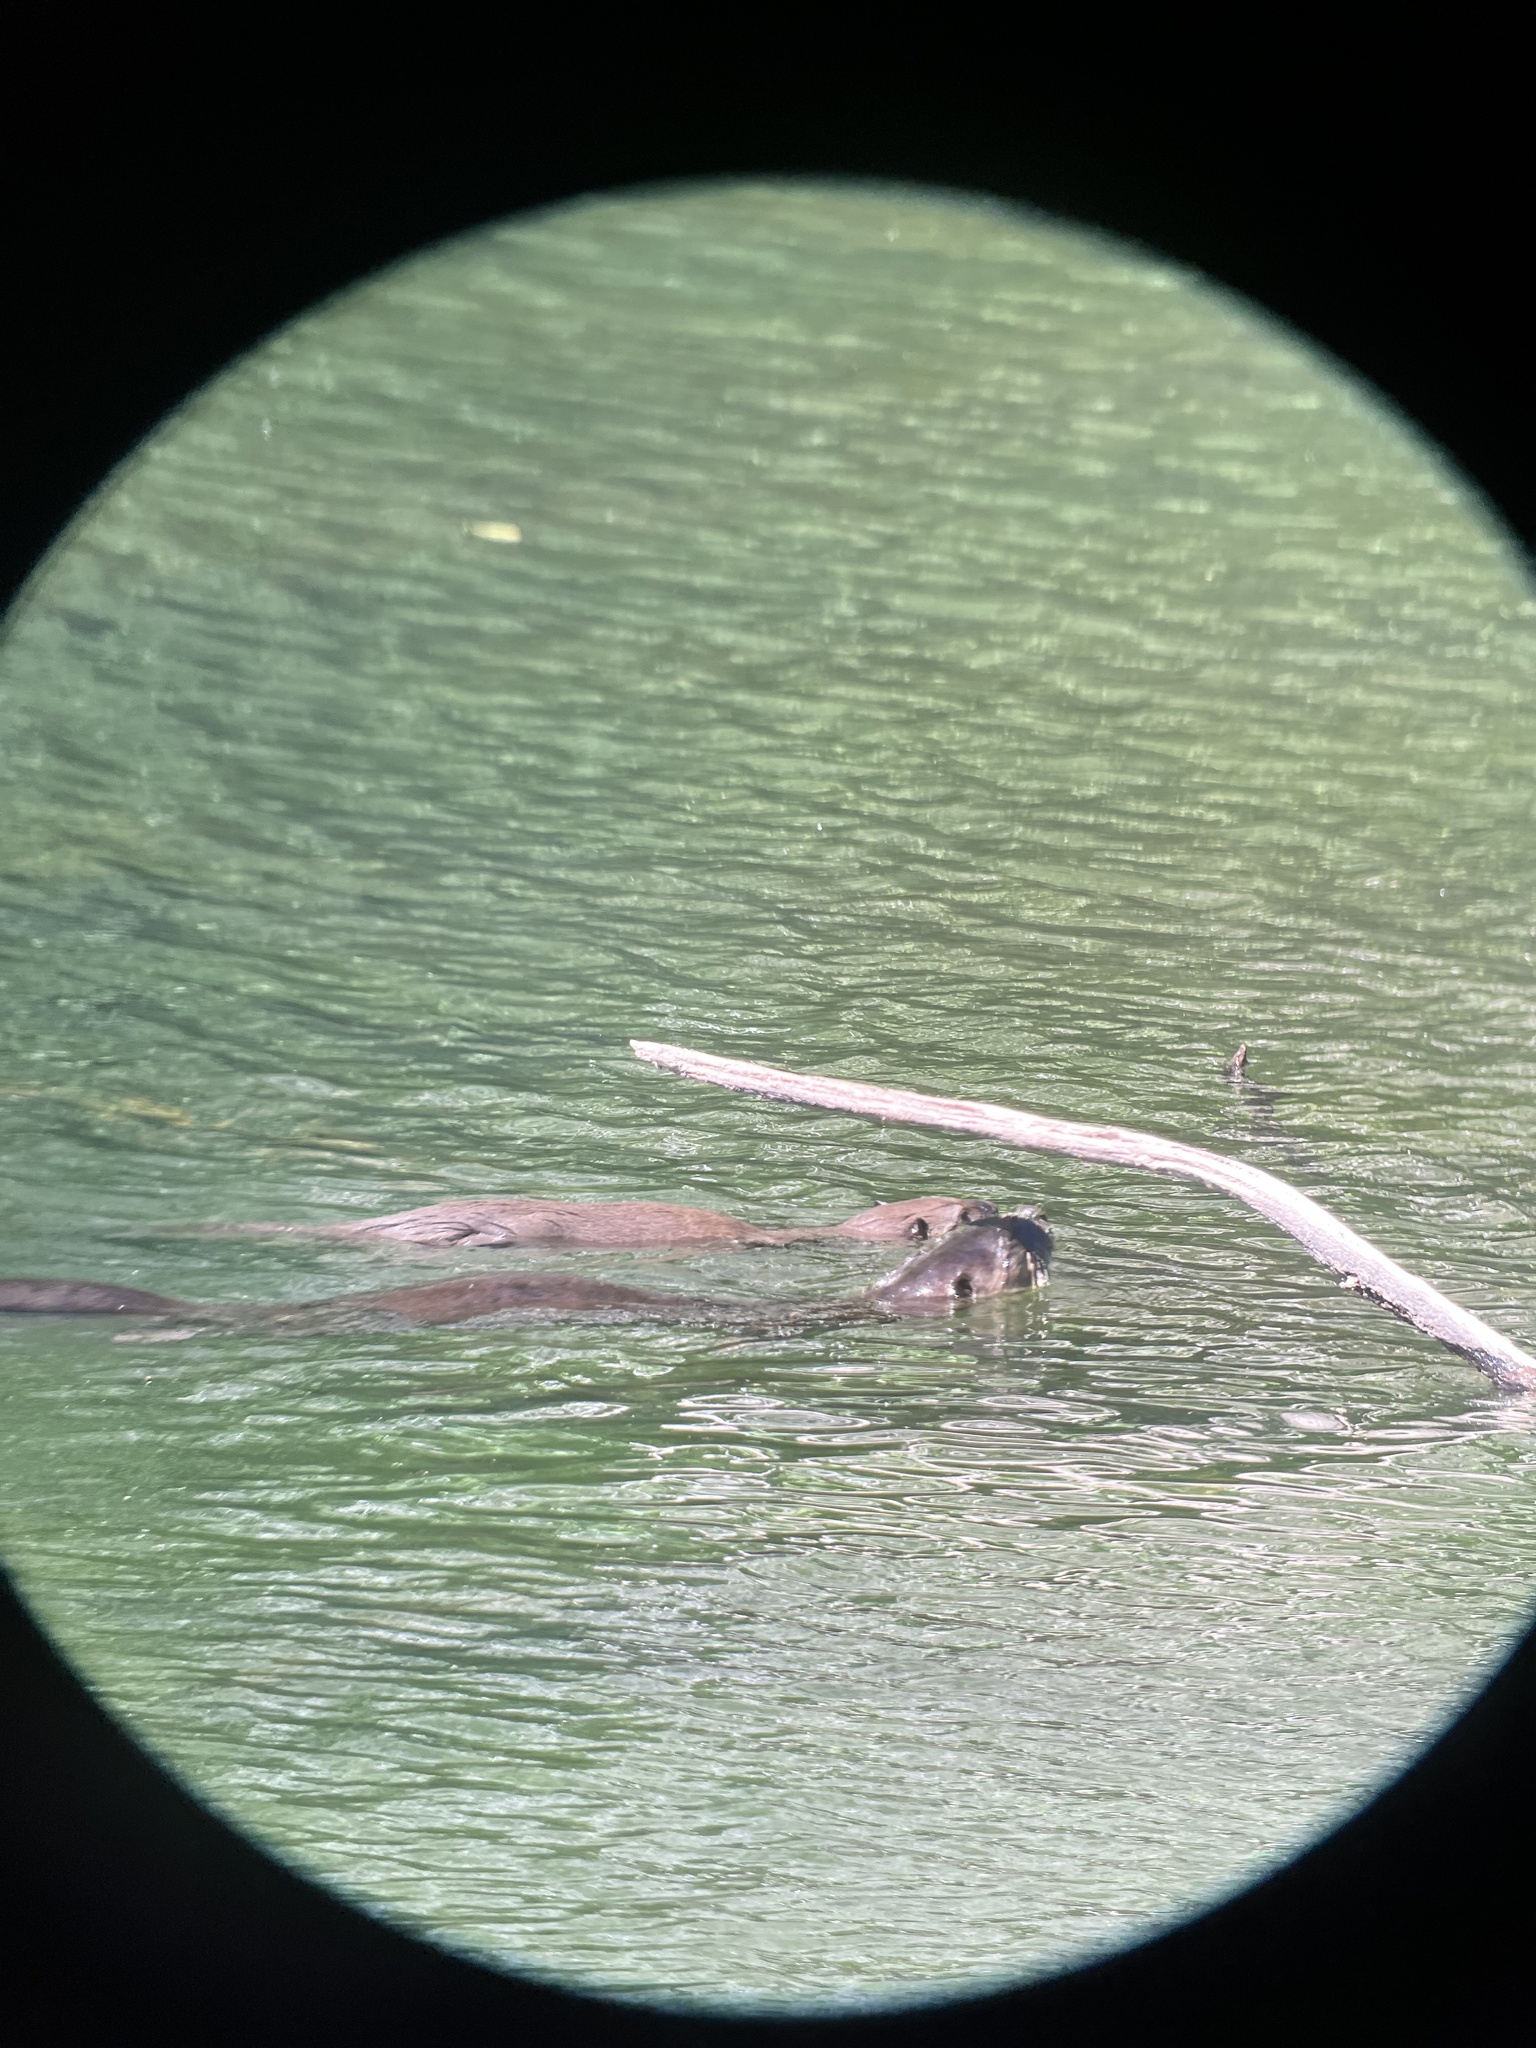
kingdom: Animalia
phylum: Chordata
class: Mammalia
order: Carnivora
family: Mustelidae
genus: Lontra
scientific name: Lontra canadensis
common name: North american river otter
